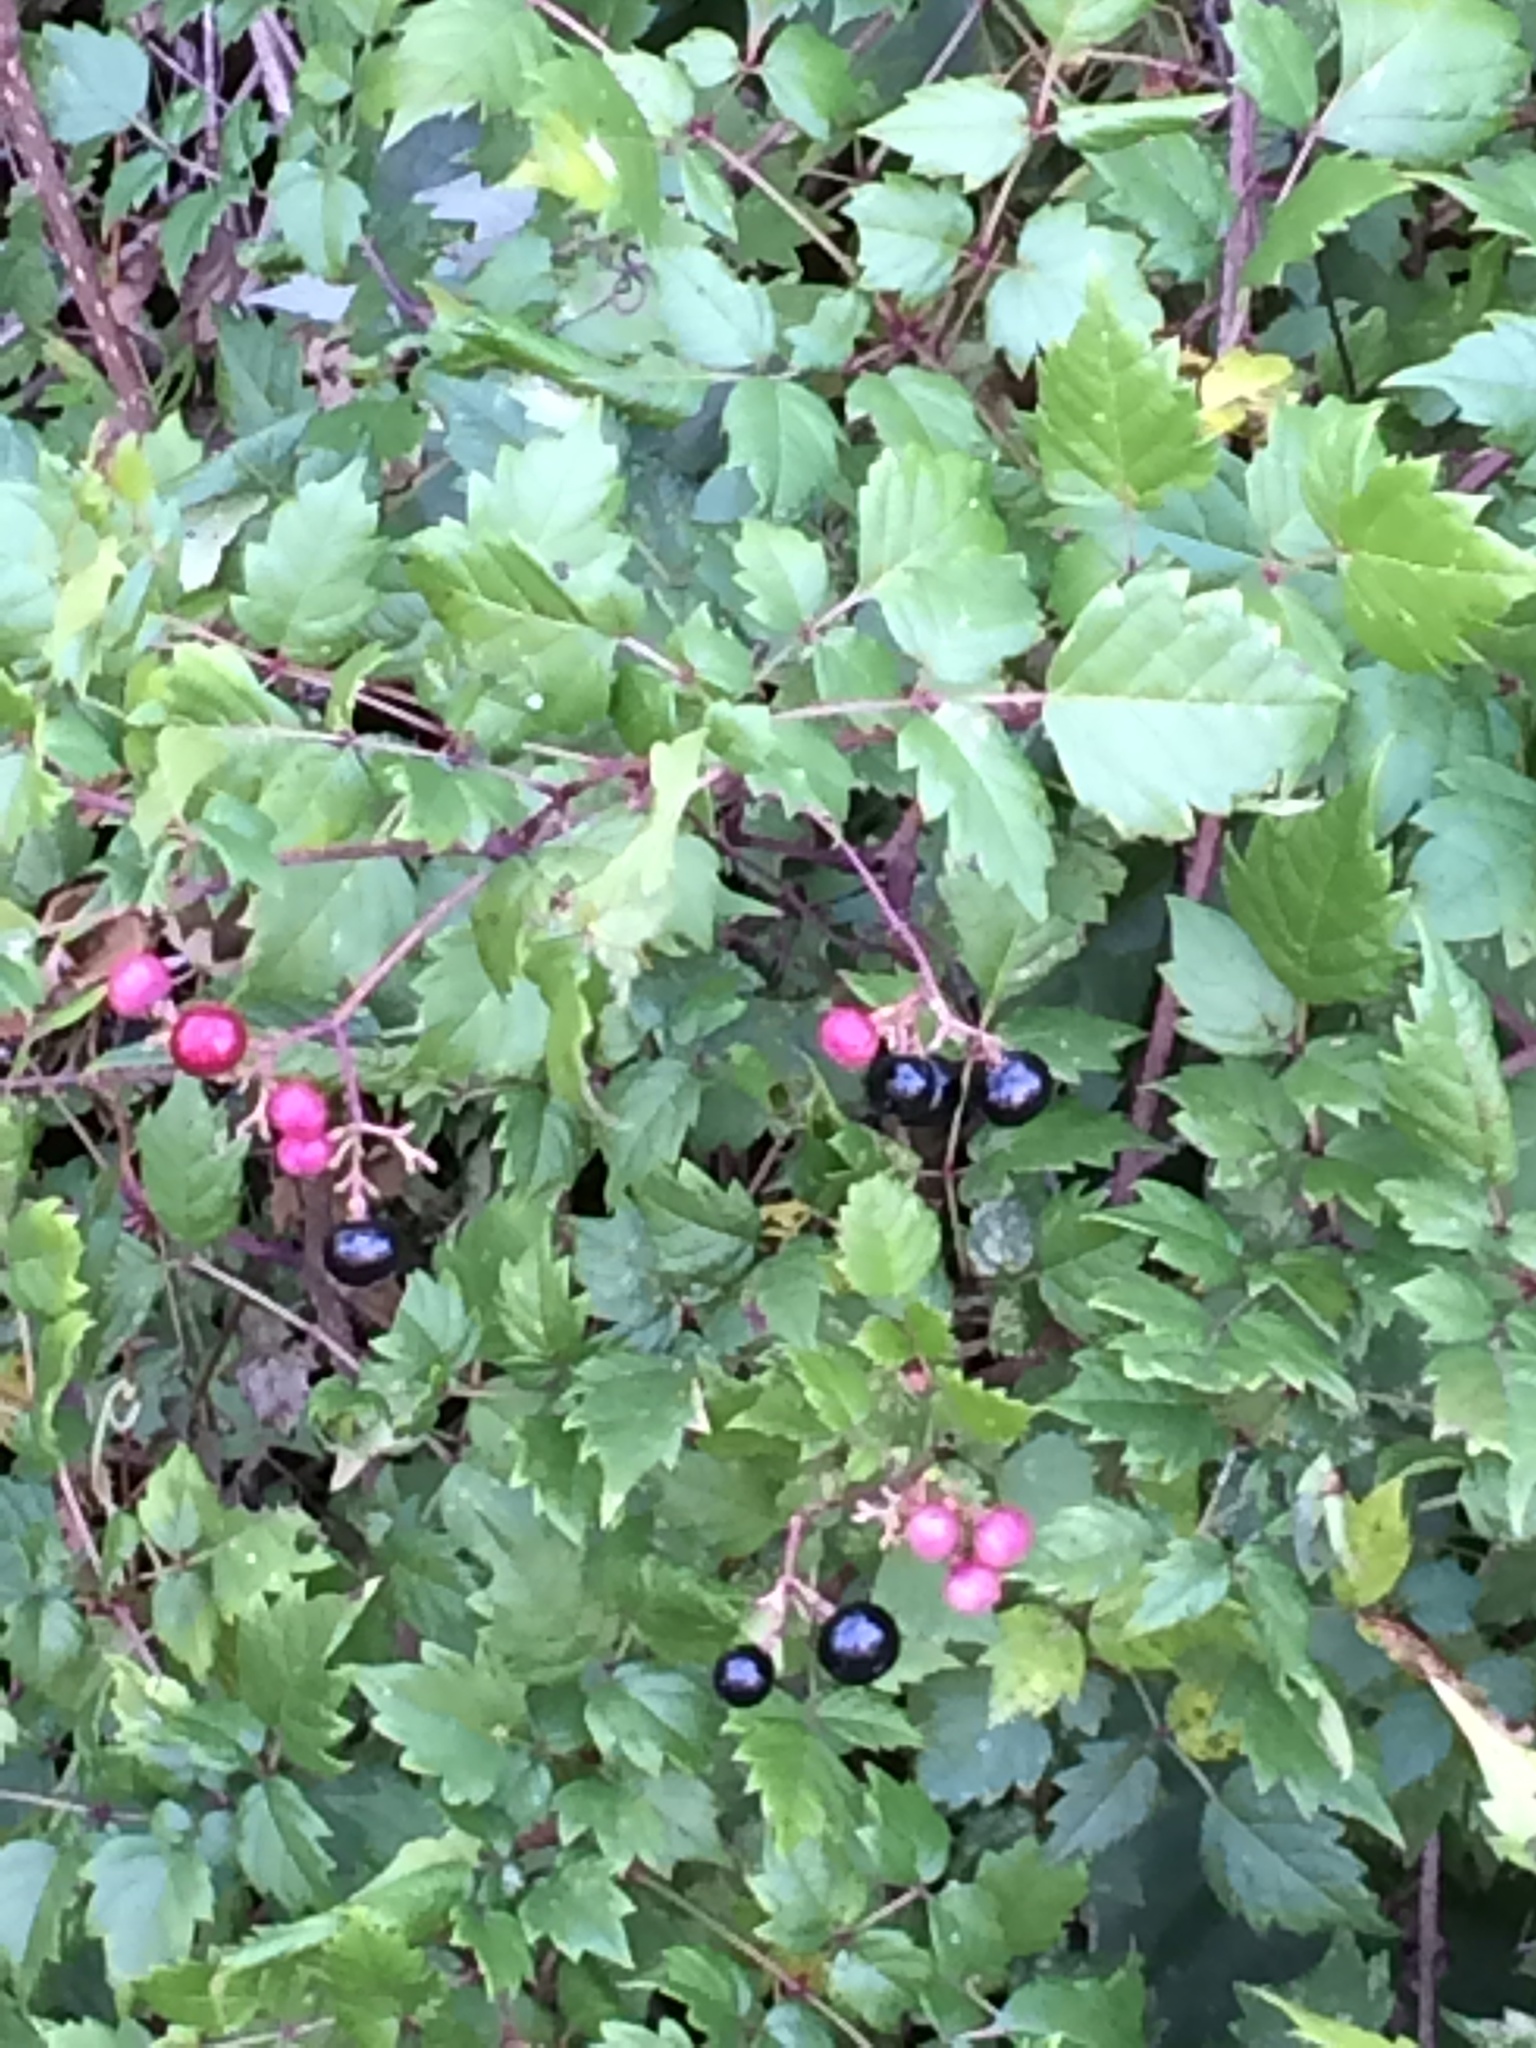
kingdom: Plantae
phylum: Tracheophyta
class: Magnoliopsida
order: Vitales
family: Vitaceae
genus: Nekemias
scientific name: Nekemias arborea
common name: Peppervine
